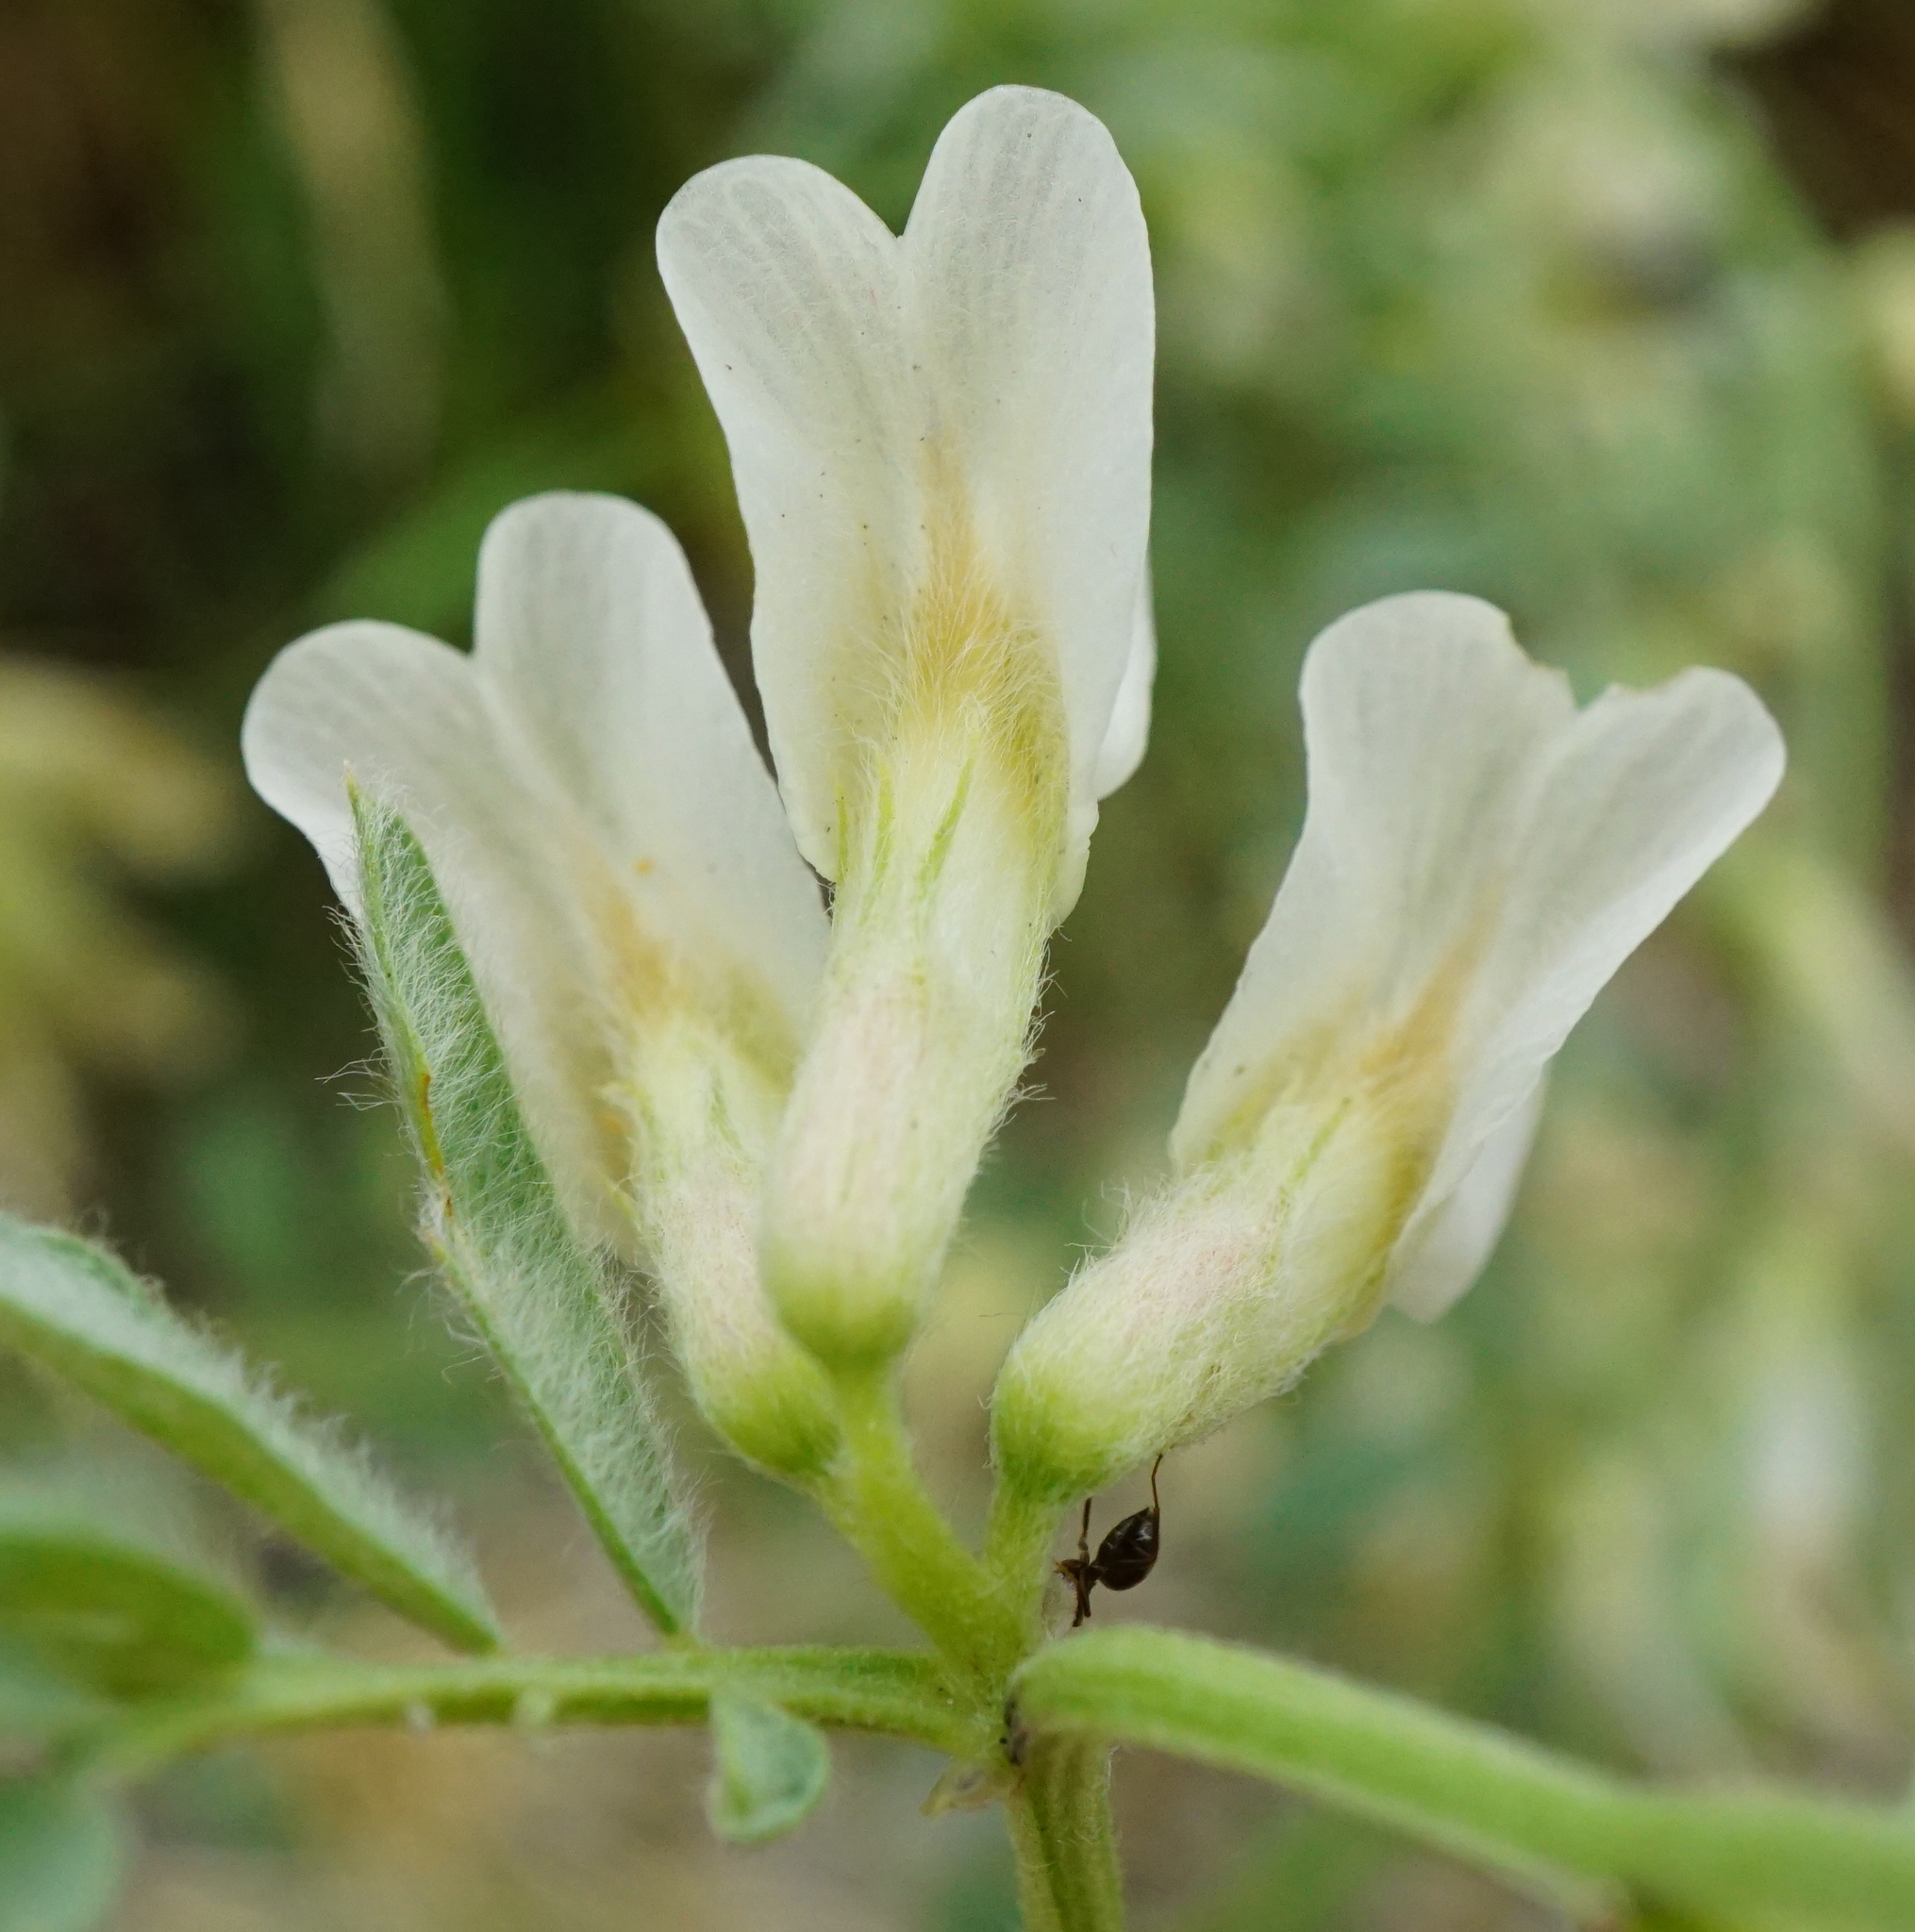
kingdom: Plantae
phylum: Tracheophyta
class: Magnoliopsida
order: Fabales
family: Fabaceae
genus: Vicia
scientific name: Vicia pannonica
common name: Hungarian vetch
